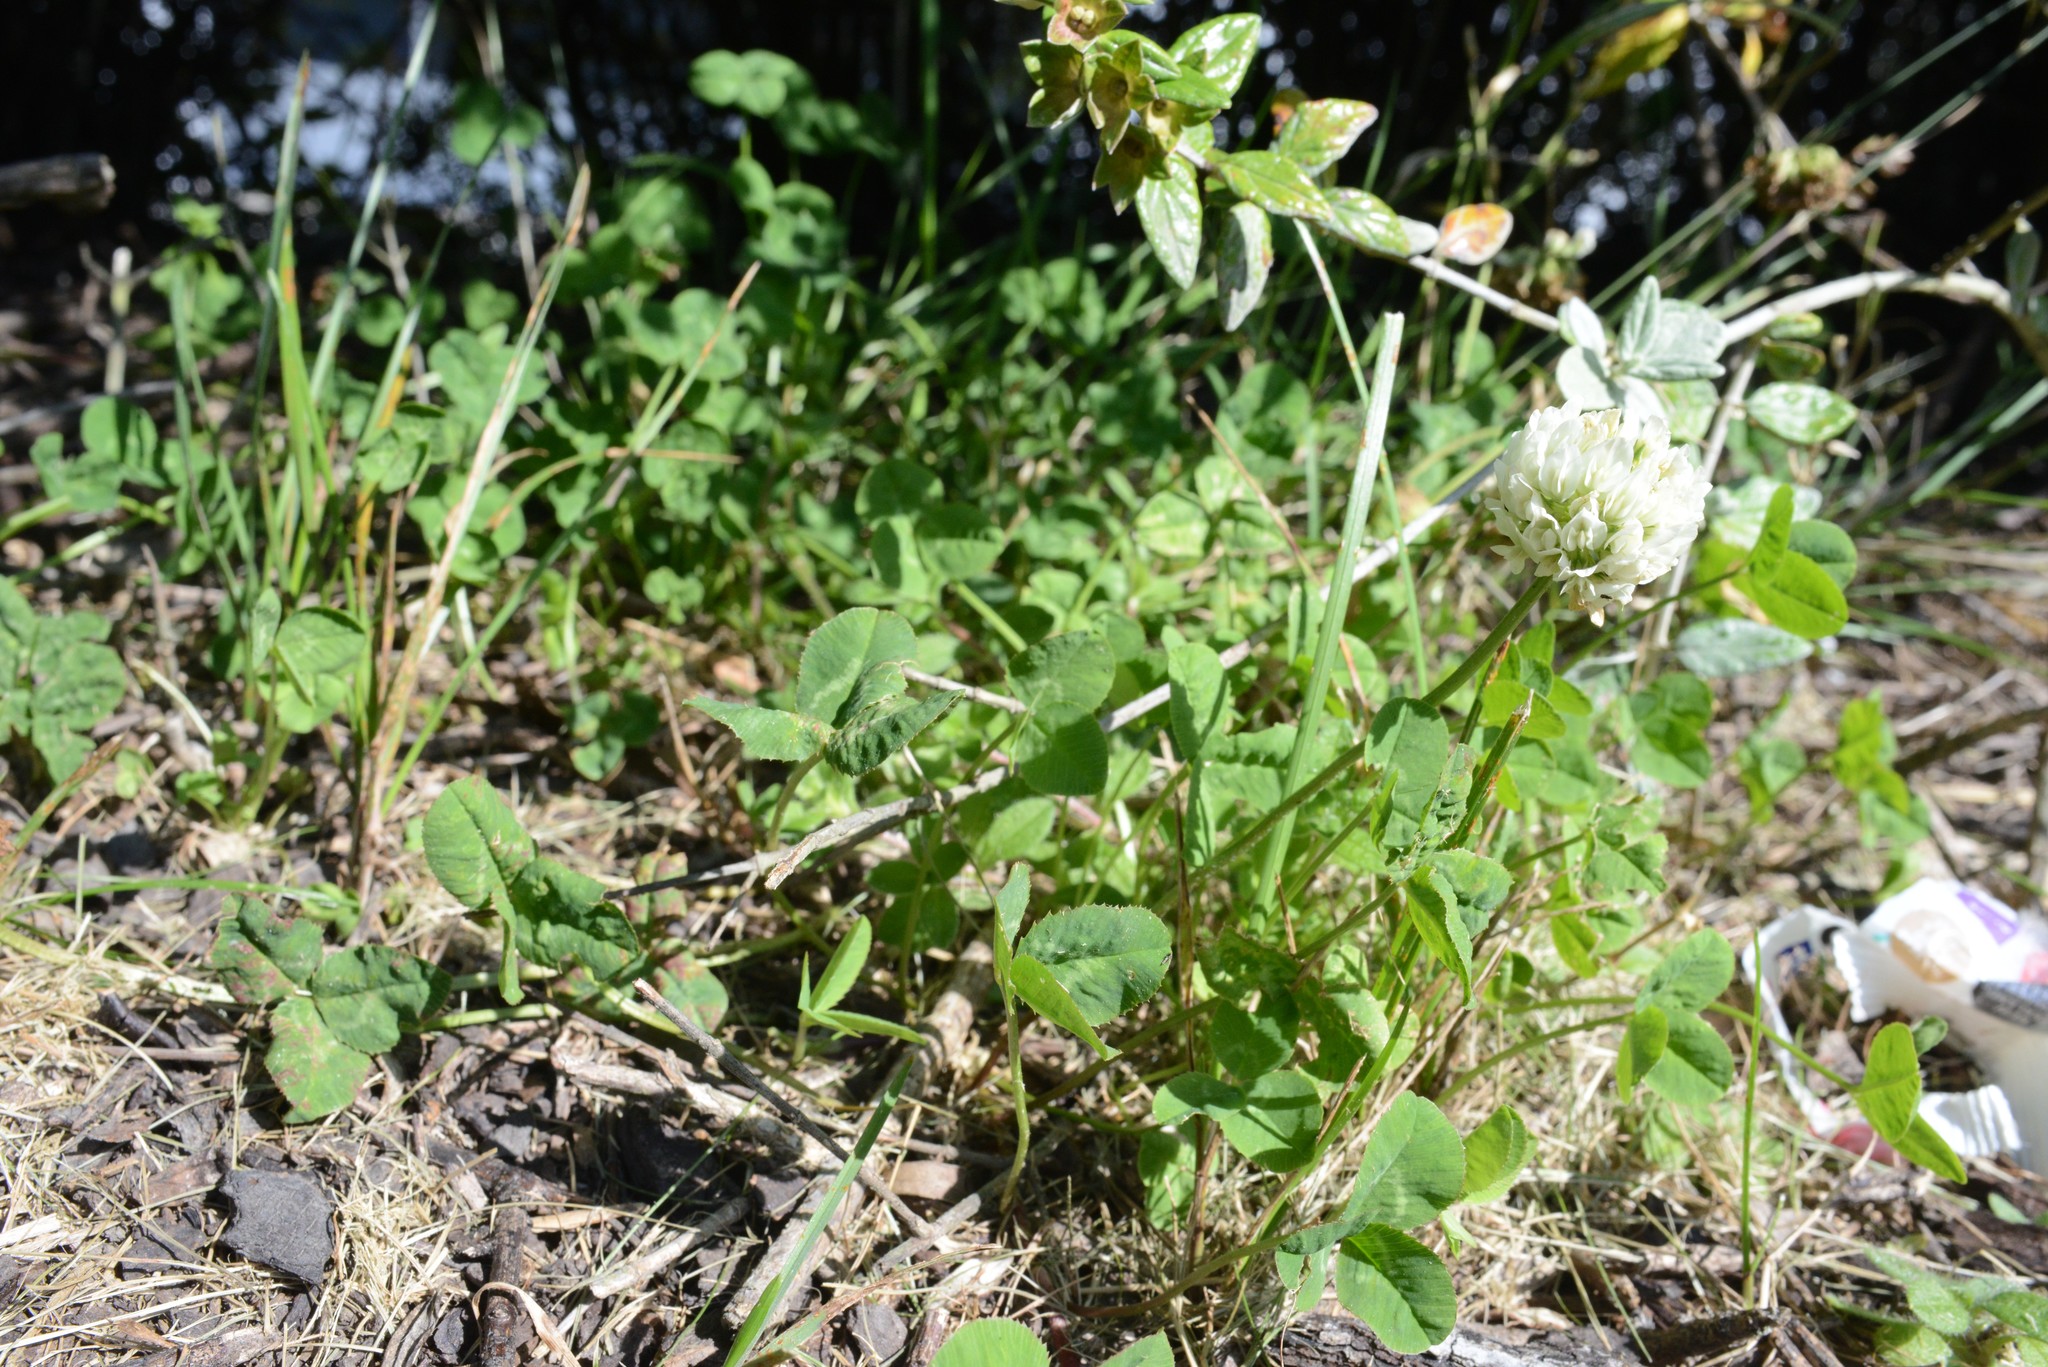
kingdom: Plantae
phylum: Tracheophyta
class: Magnoliopsida
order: Fabales
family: Fabaceae
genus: Trifolium
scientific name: Trifolium repens
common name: White clover
